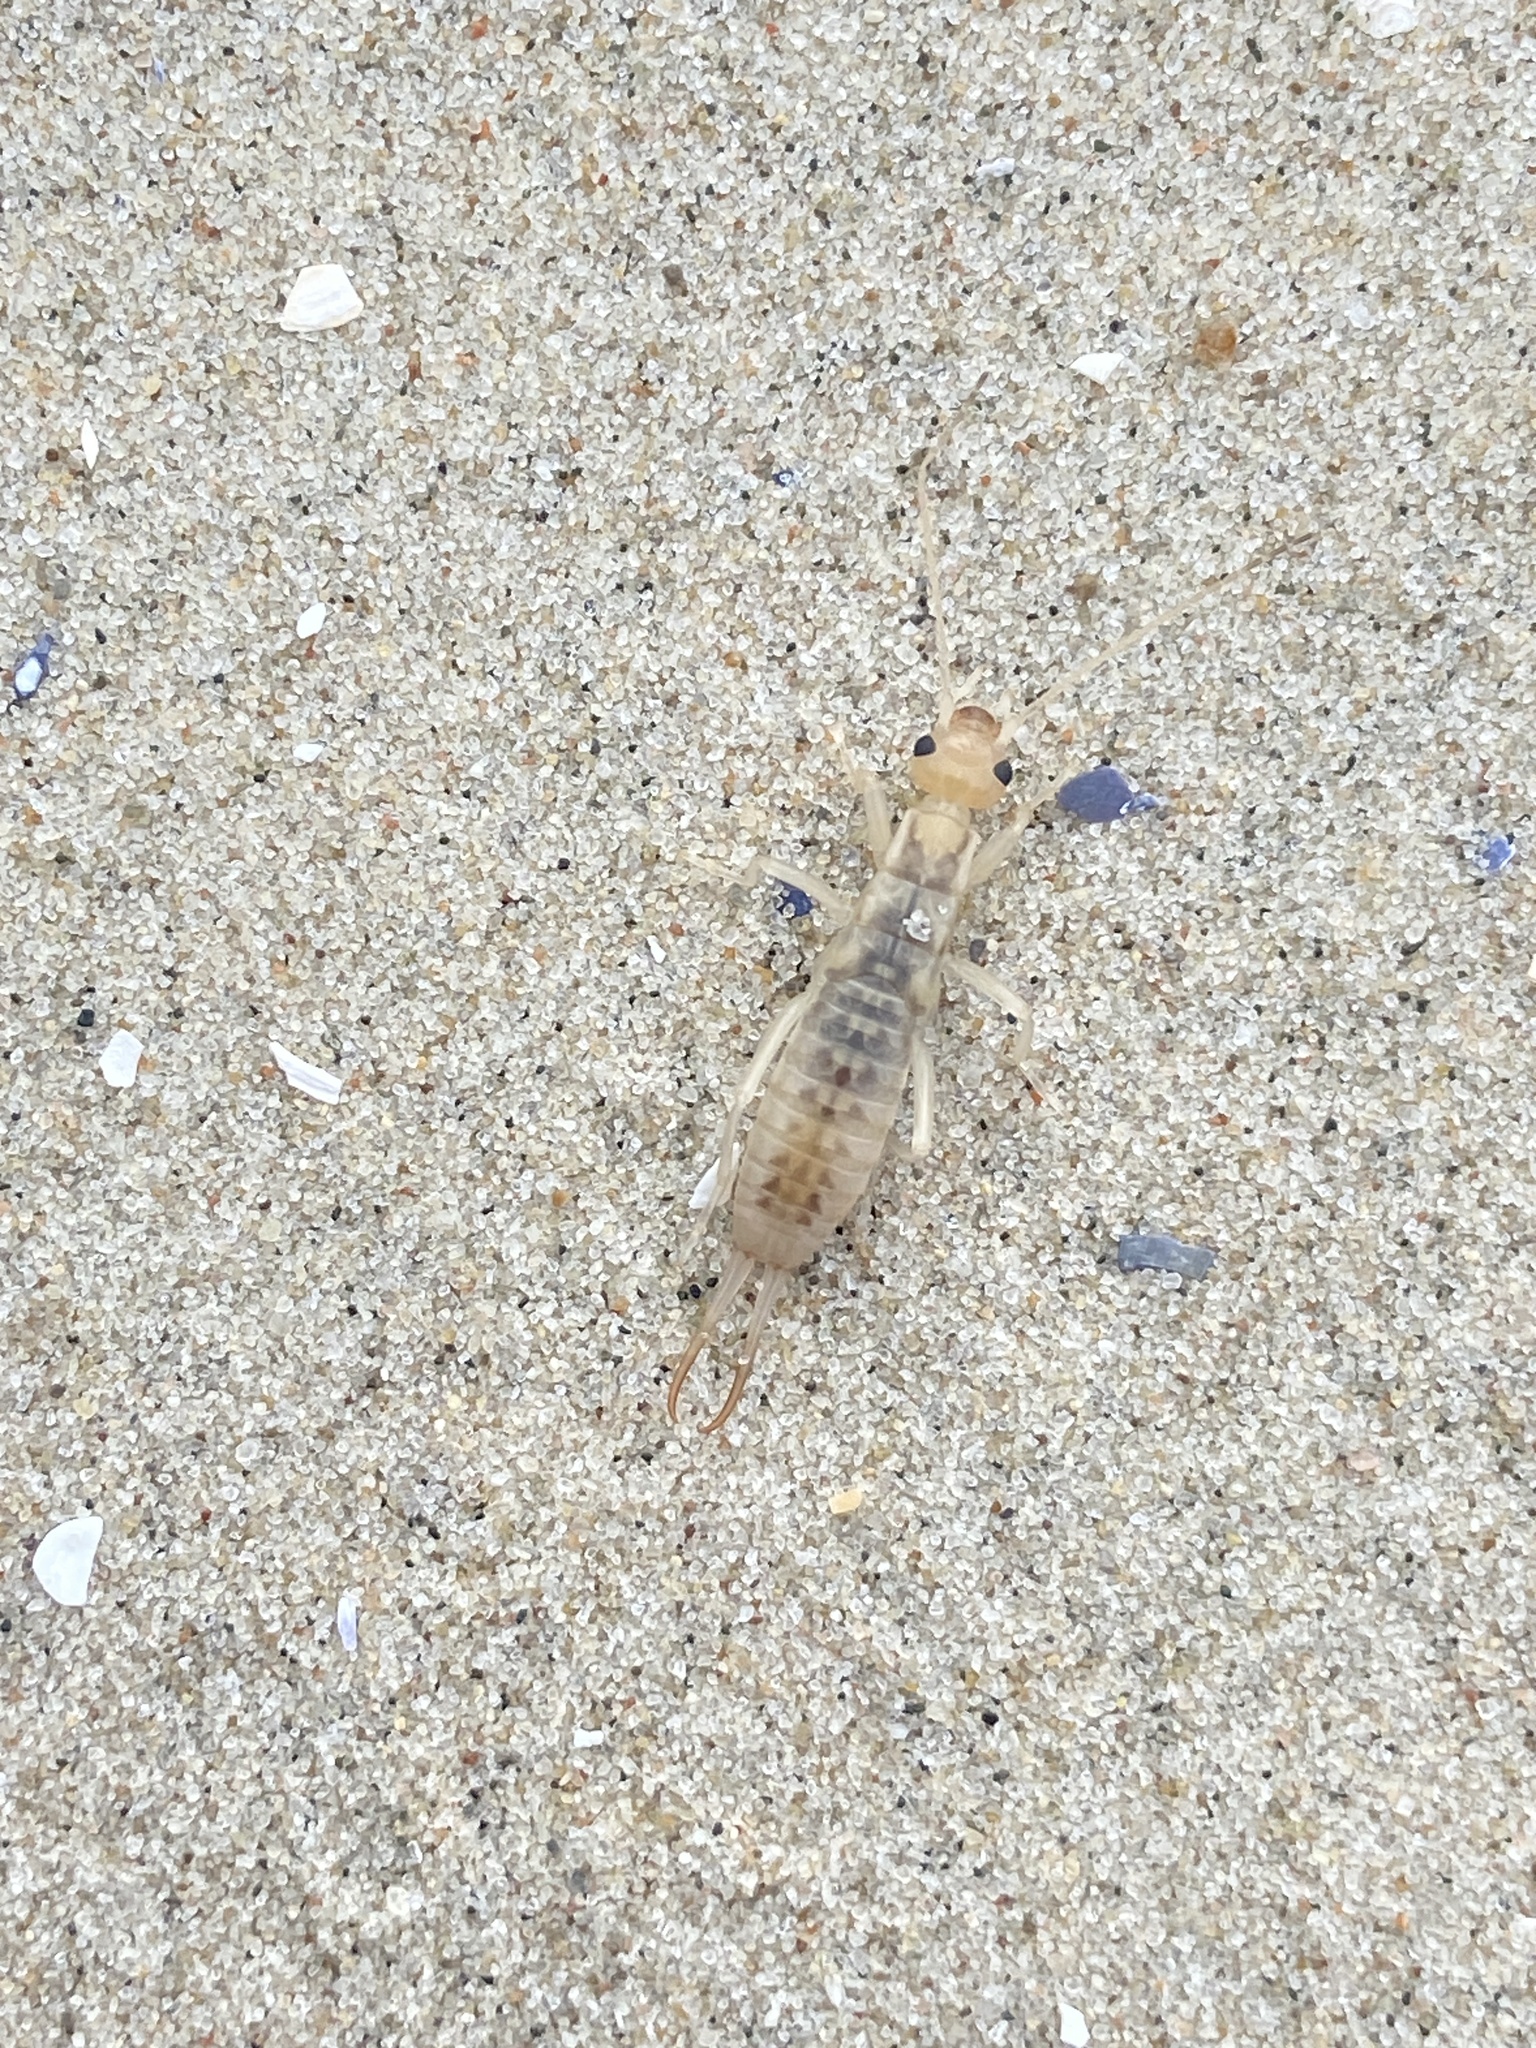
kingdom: Animalia
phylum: Arthropoda
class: Insecta
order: Dermaptera
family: Labiduridae
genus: Labidura
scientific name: Labidura riparia
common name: Striped earwig
